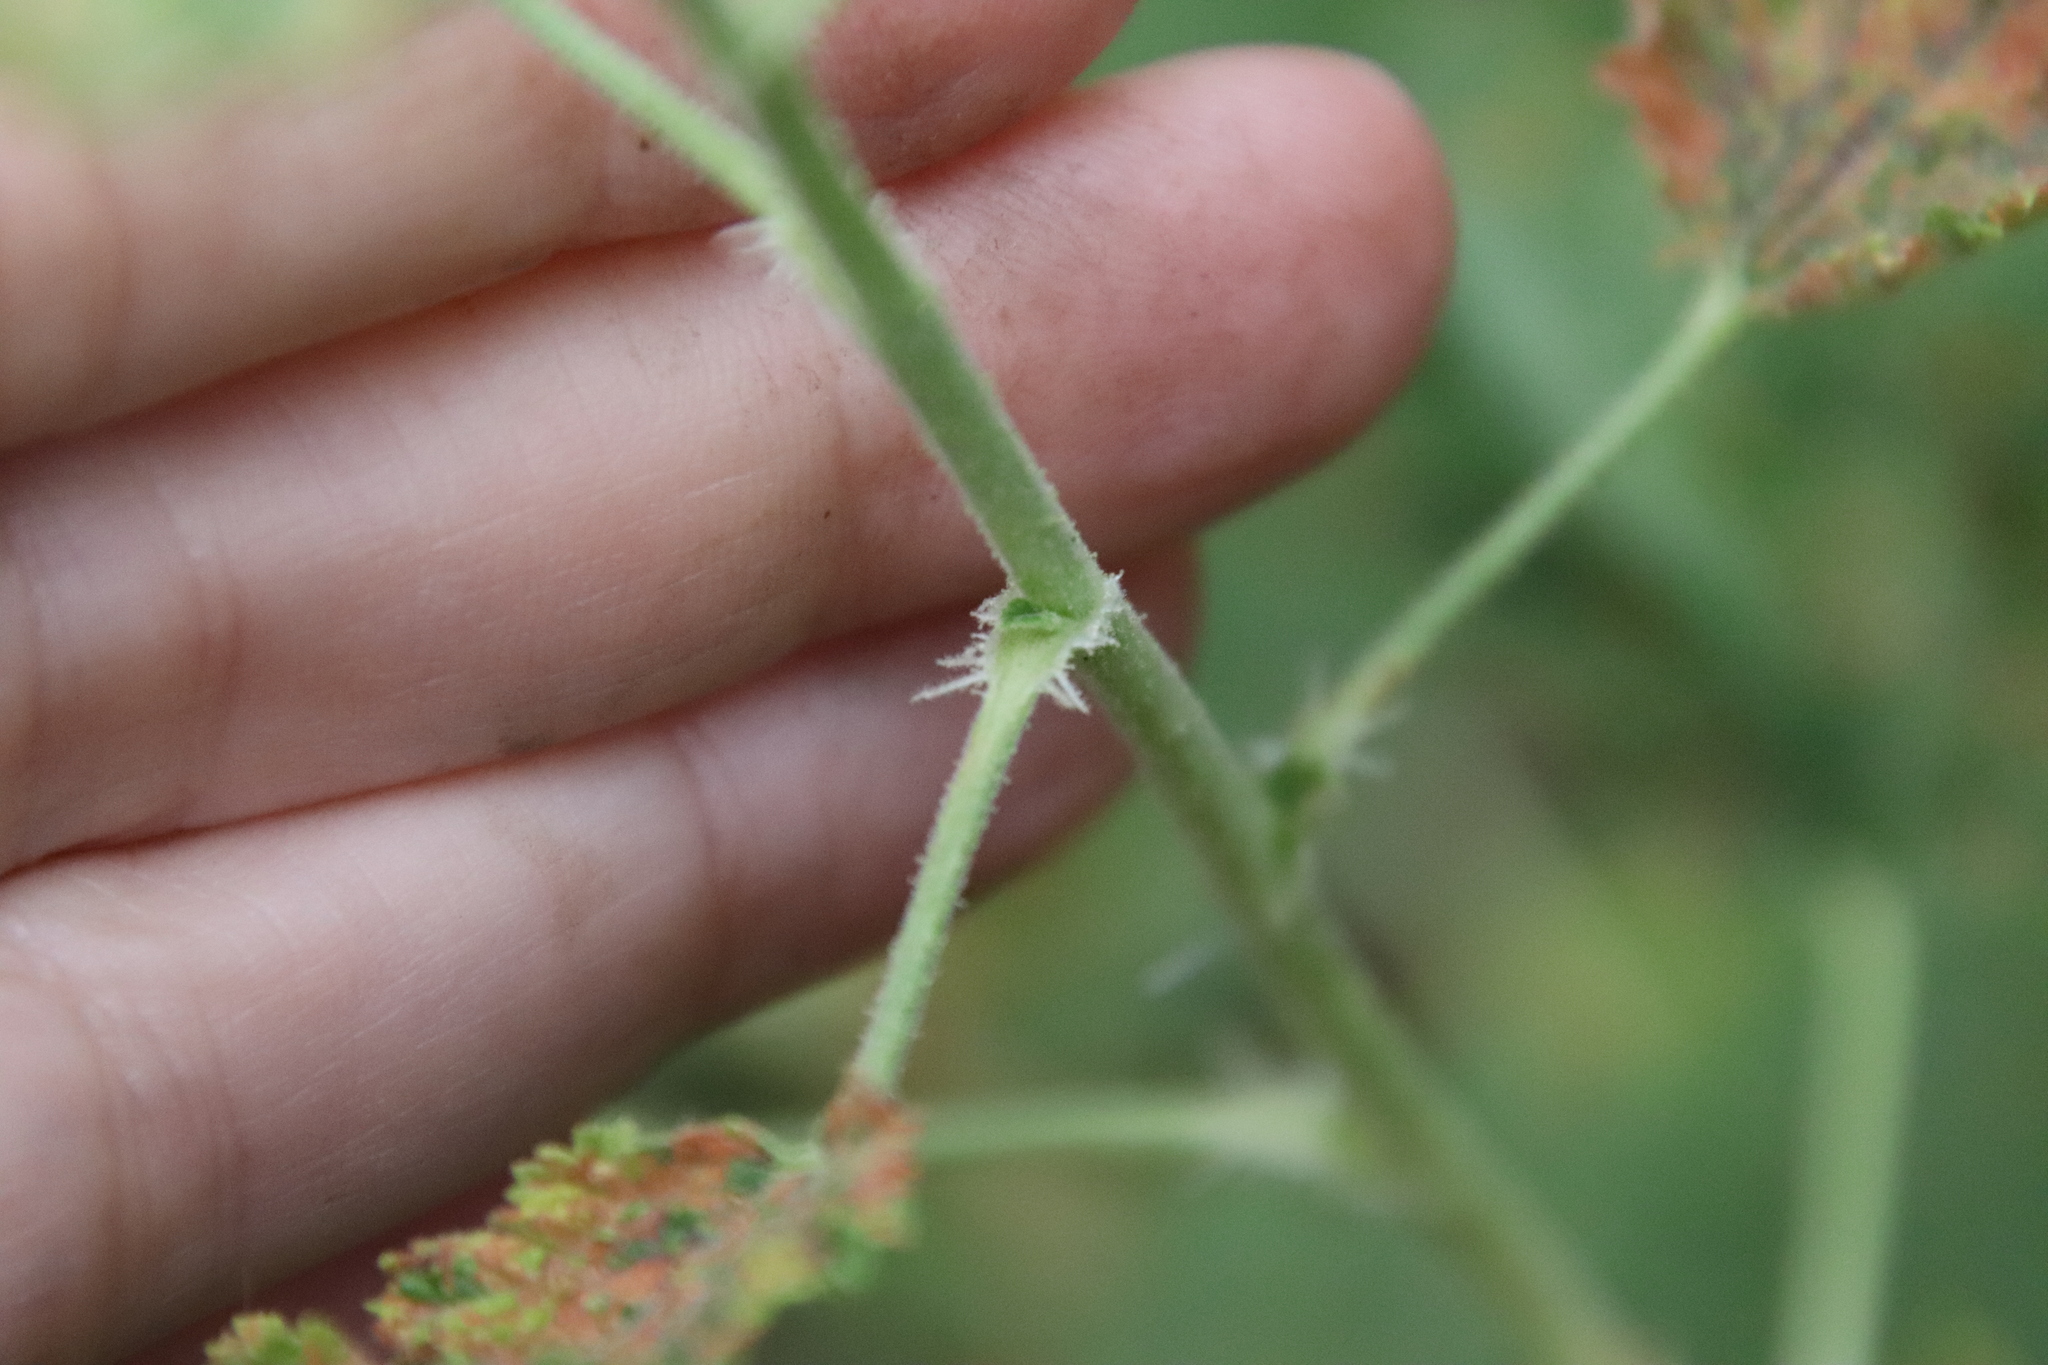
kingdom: Plantae
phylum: Tracheophyta
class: Magnoliopsida
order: Saxifragales
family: Grossulariaceae
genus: Ribes
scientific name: Ribes indecorum
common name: White-flower currant
